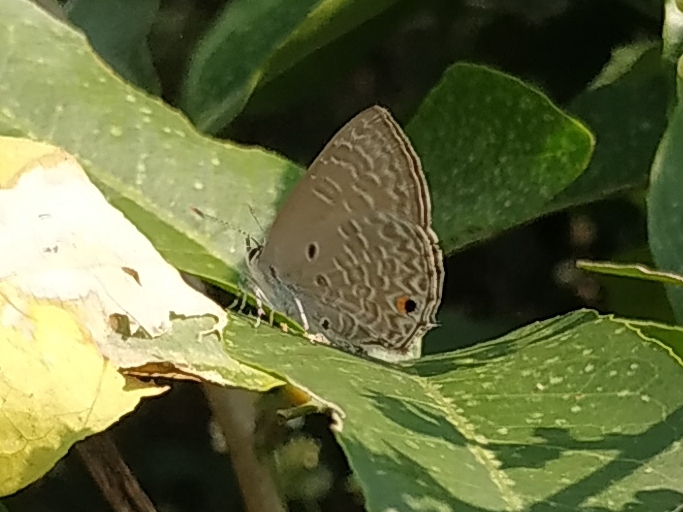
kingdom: Animalia
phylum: Arthropoda
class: Insecta
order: Lepidoptera
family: Lycaenidae
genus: Anthene
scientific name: Anthene lycaenina
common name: Pointed ciliate blue
